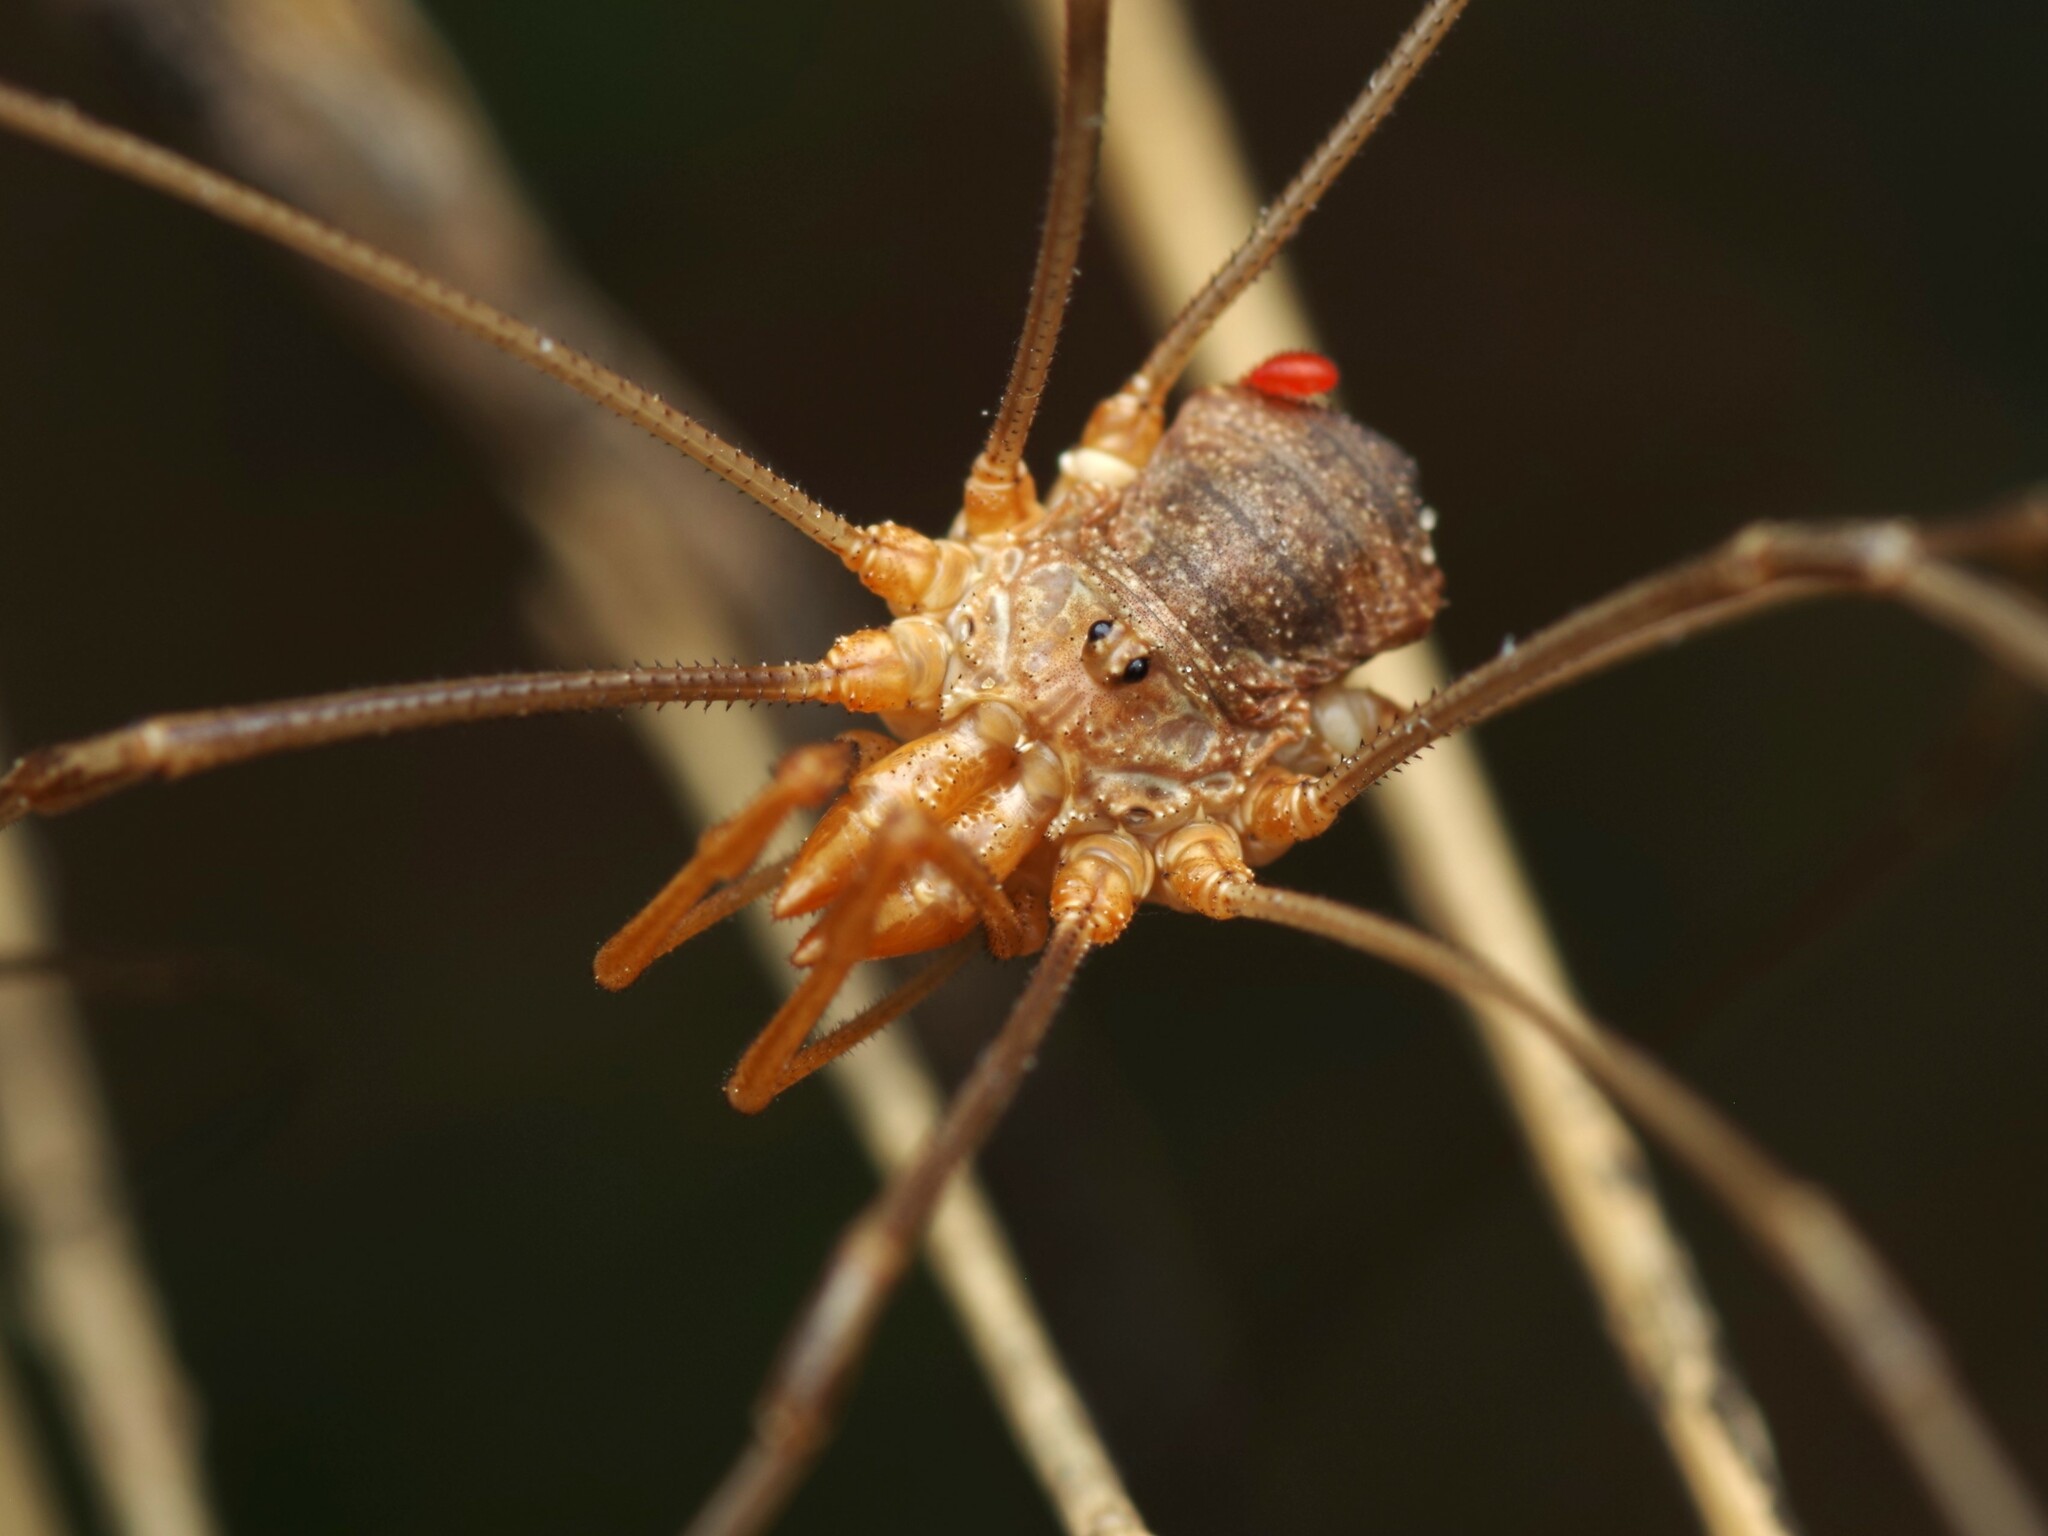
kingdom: Animalia
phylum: Arthropoda
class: Arachnida
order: Opiliones
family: Phalangiidae
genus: Phalangium
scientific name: Phalangium opilio
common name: Daddy longleg
